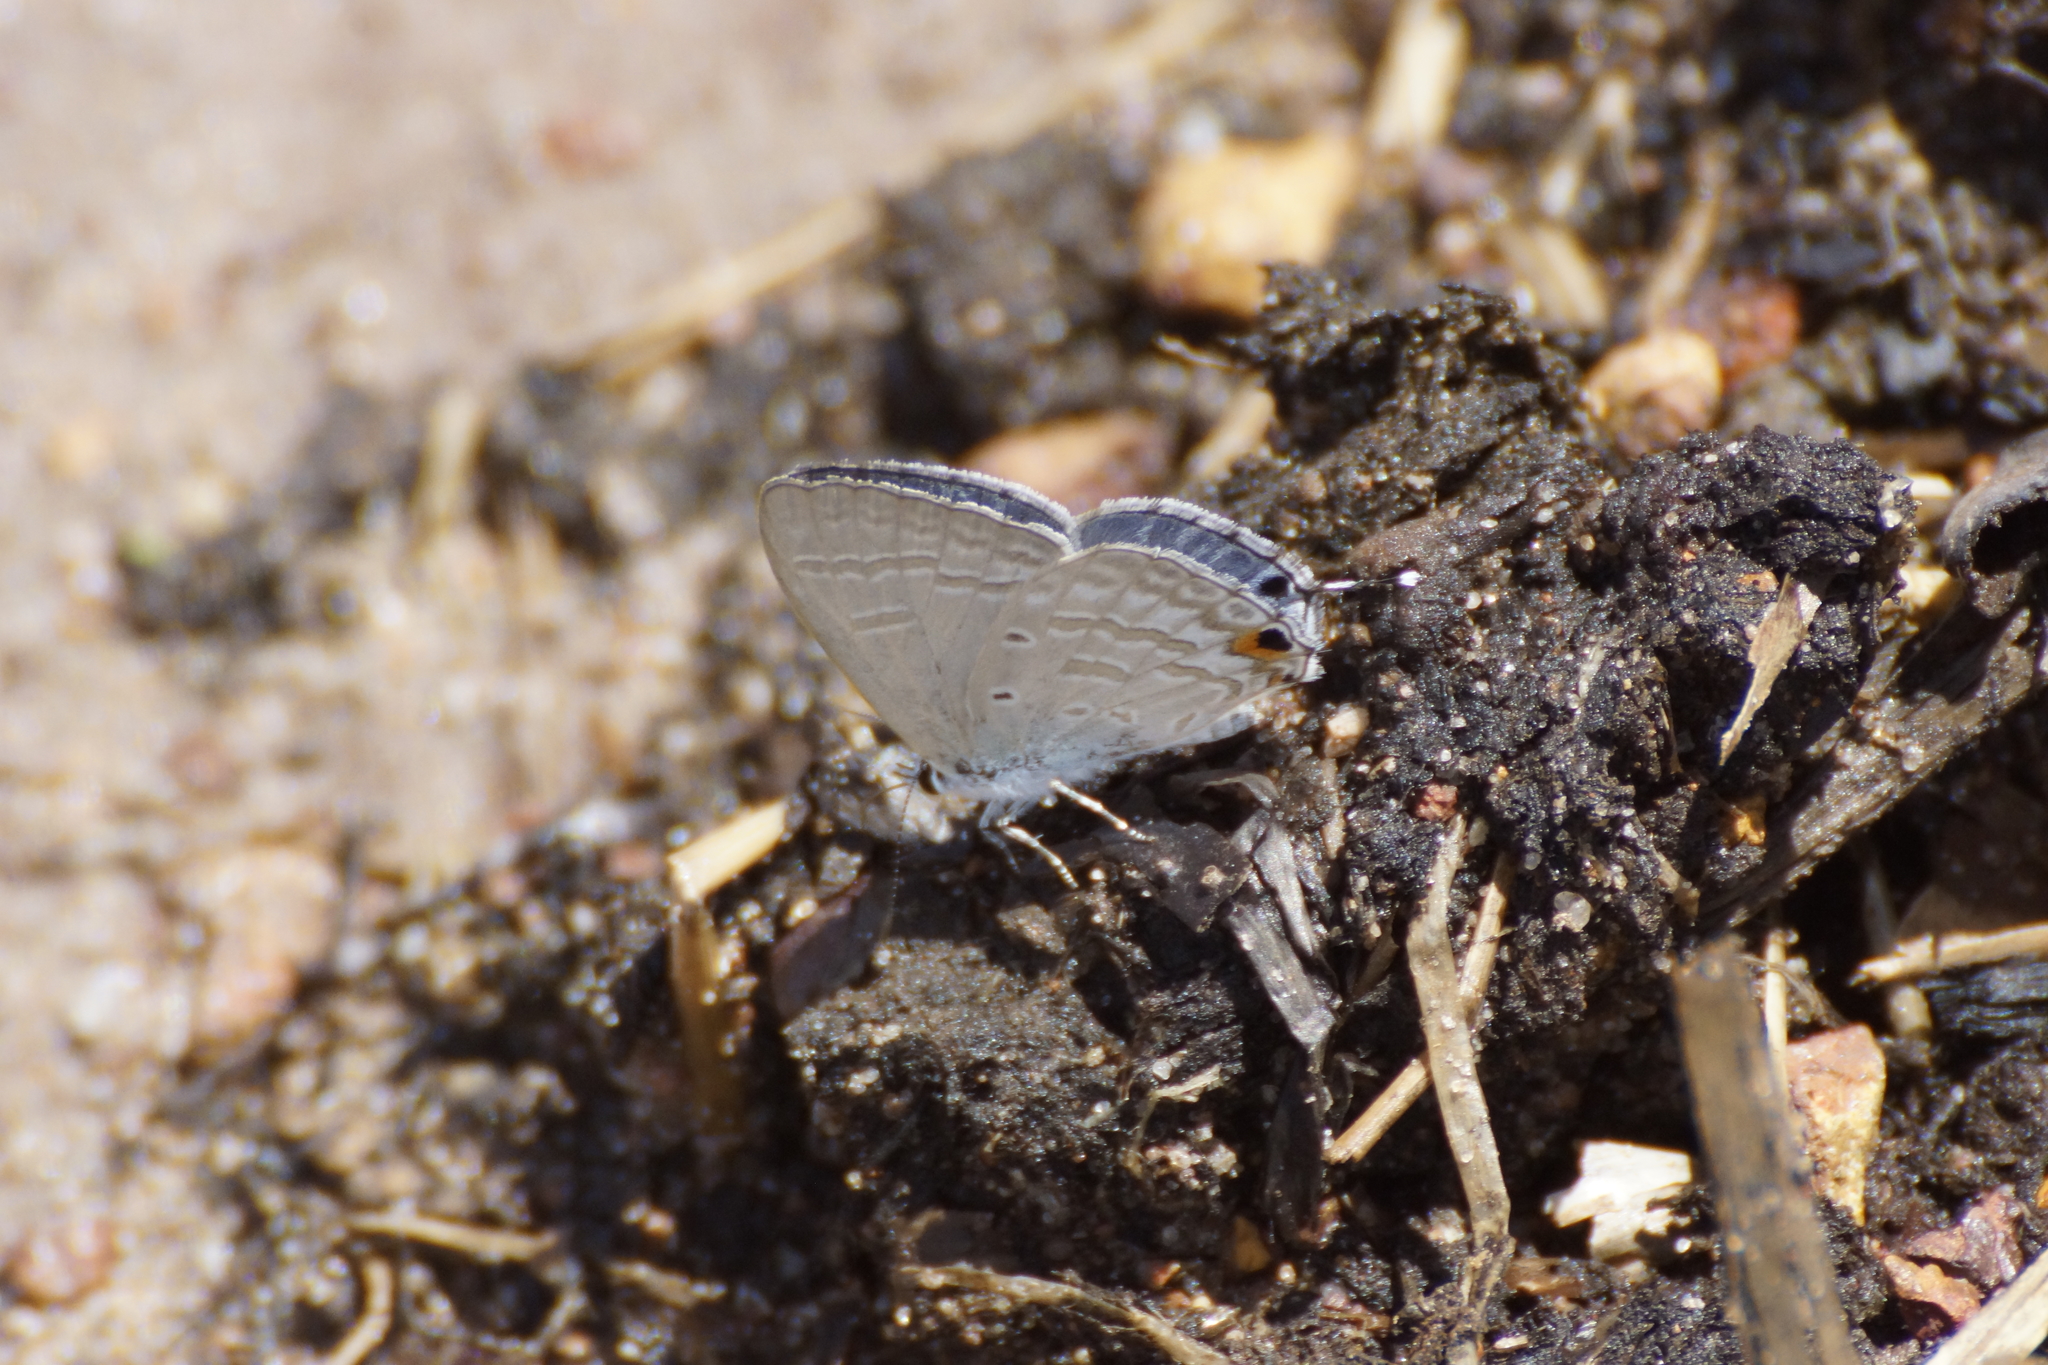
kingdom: Animalia
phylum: Arthropoda
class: Insecta
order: Lepidoptera
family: Lycaenidae
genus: Catochrysops
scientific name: Catochrysops panormus
